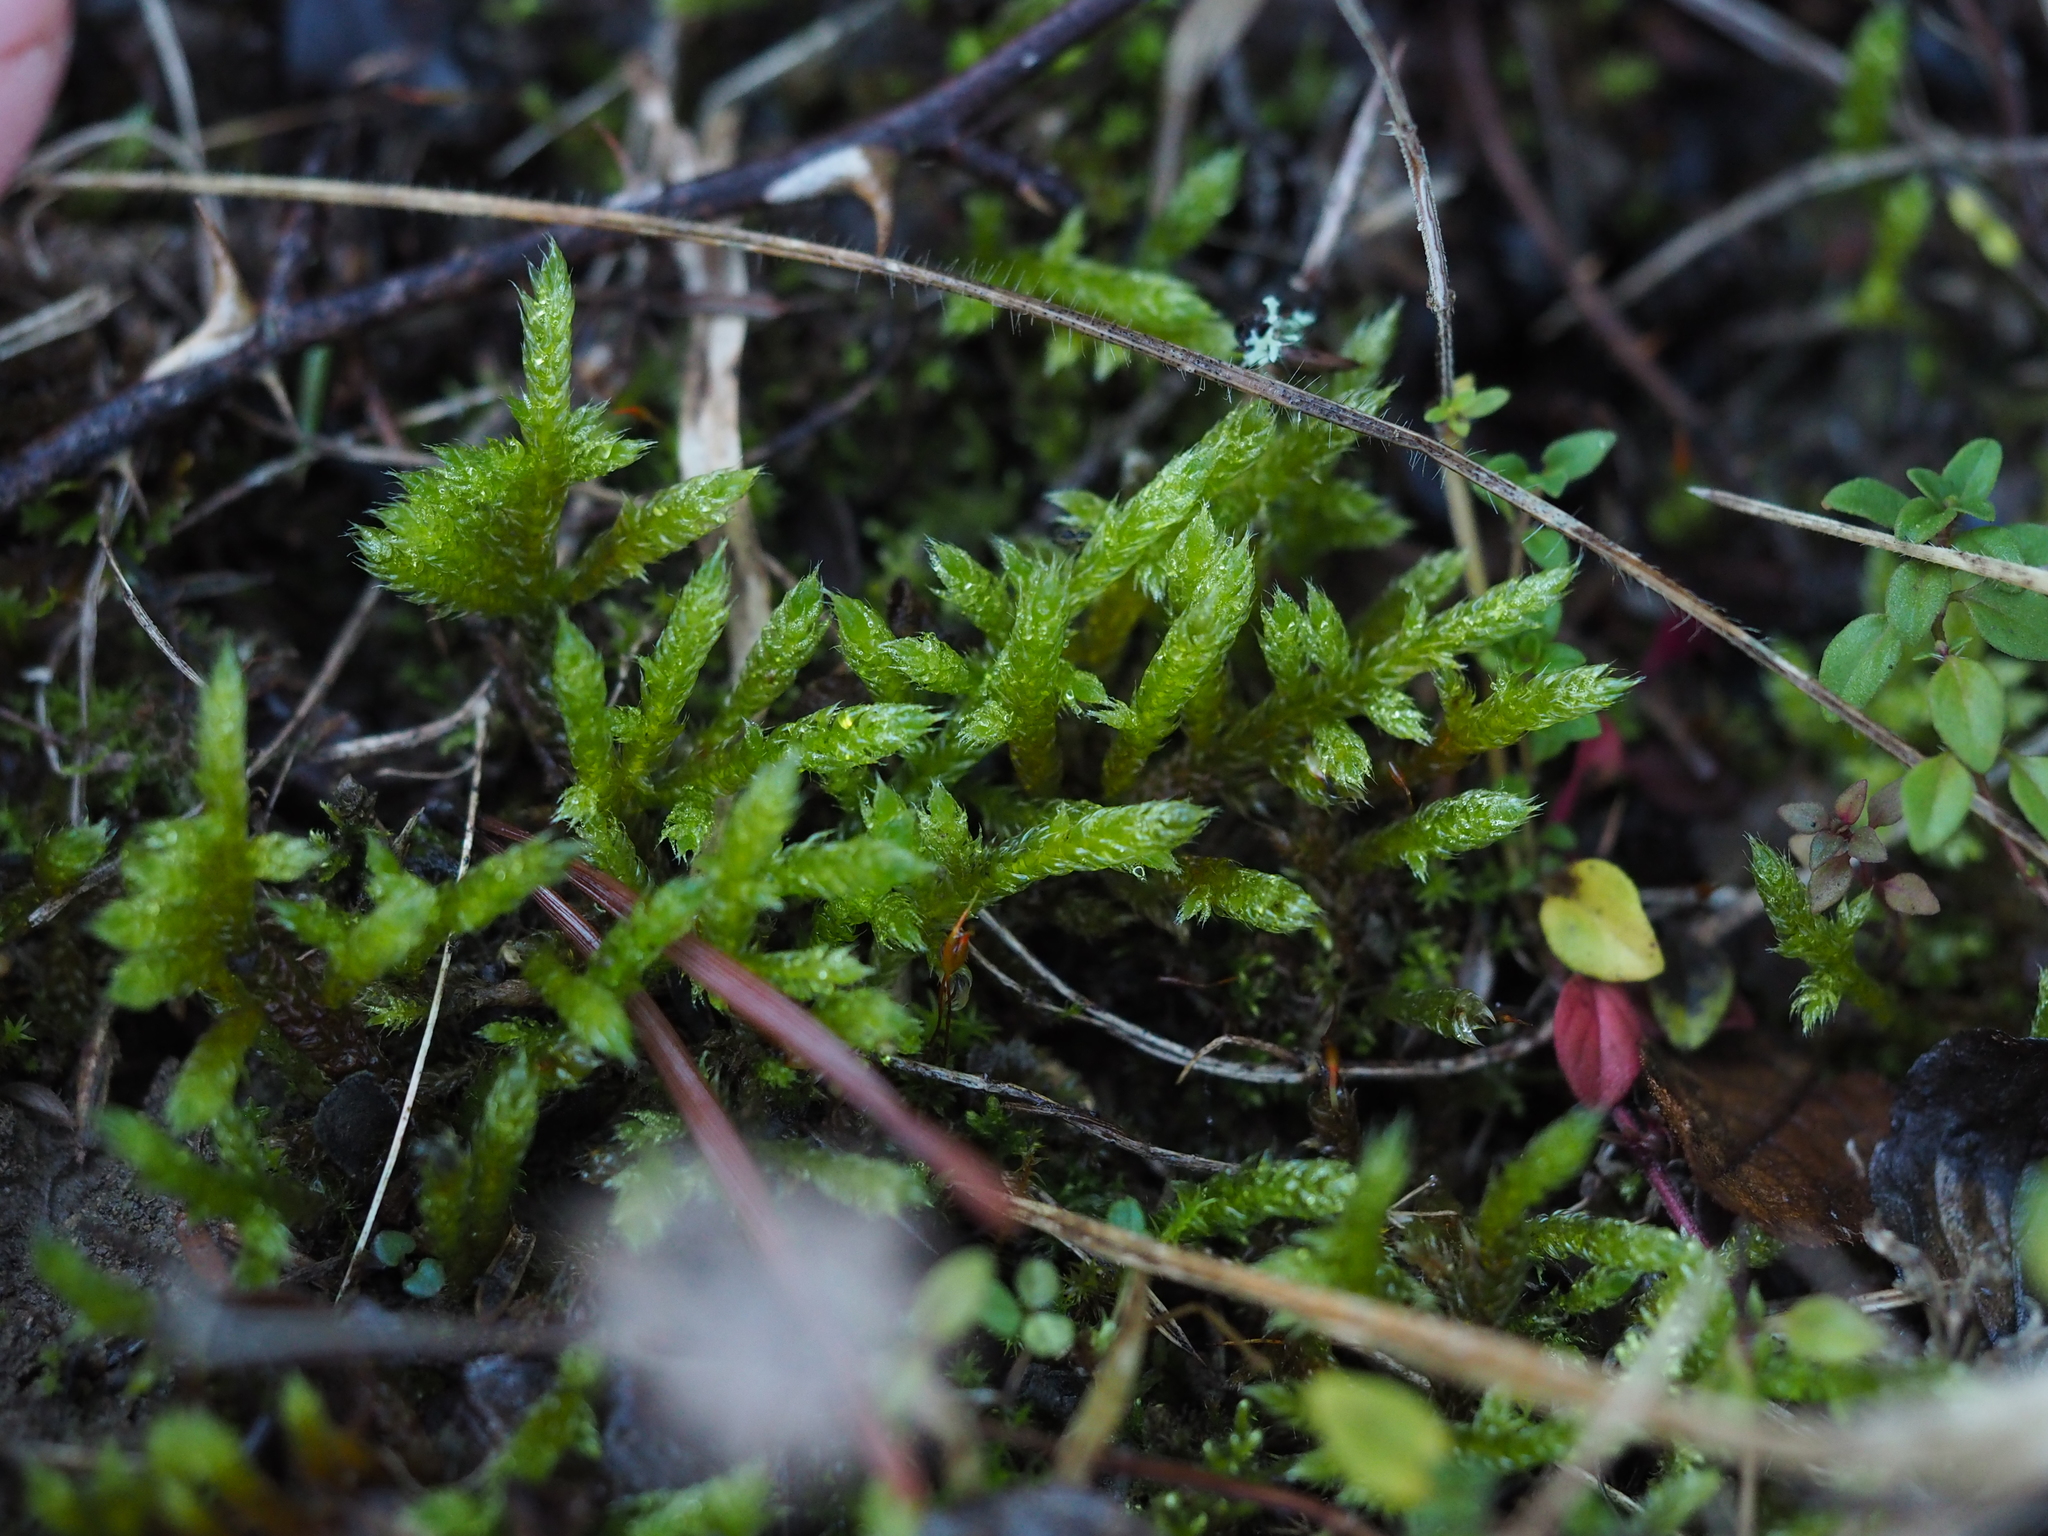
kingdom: Plantae
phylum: Bryophyta
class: Bryopsida
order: Hypnales
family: Hypnaceae
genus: Hypnum
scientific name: Hypnum cupressiforme
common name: Cypress-leaved plait-moss
